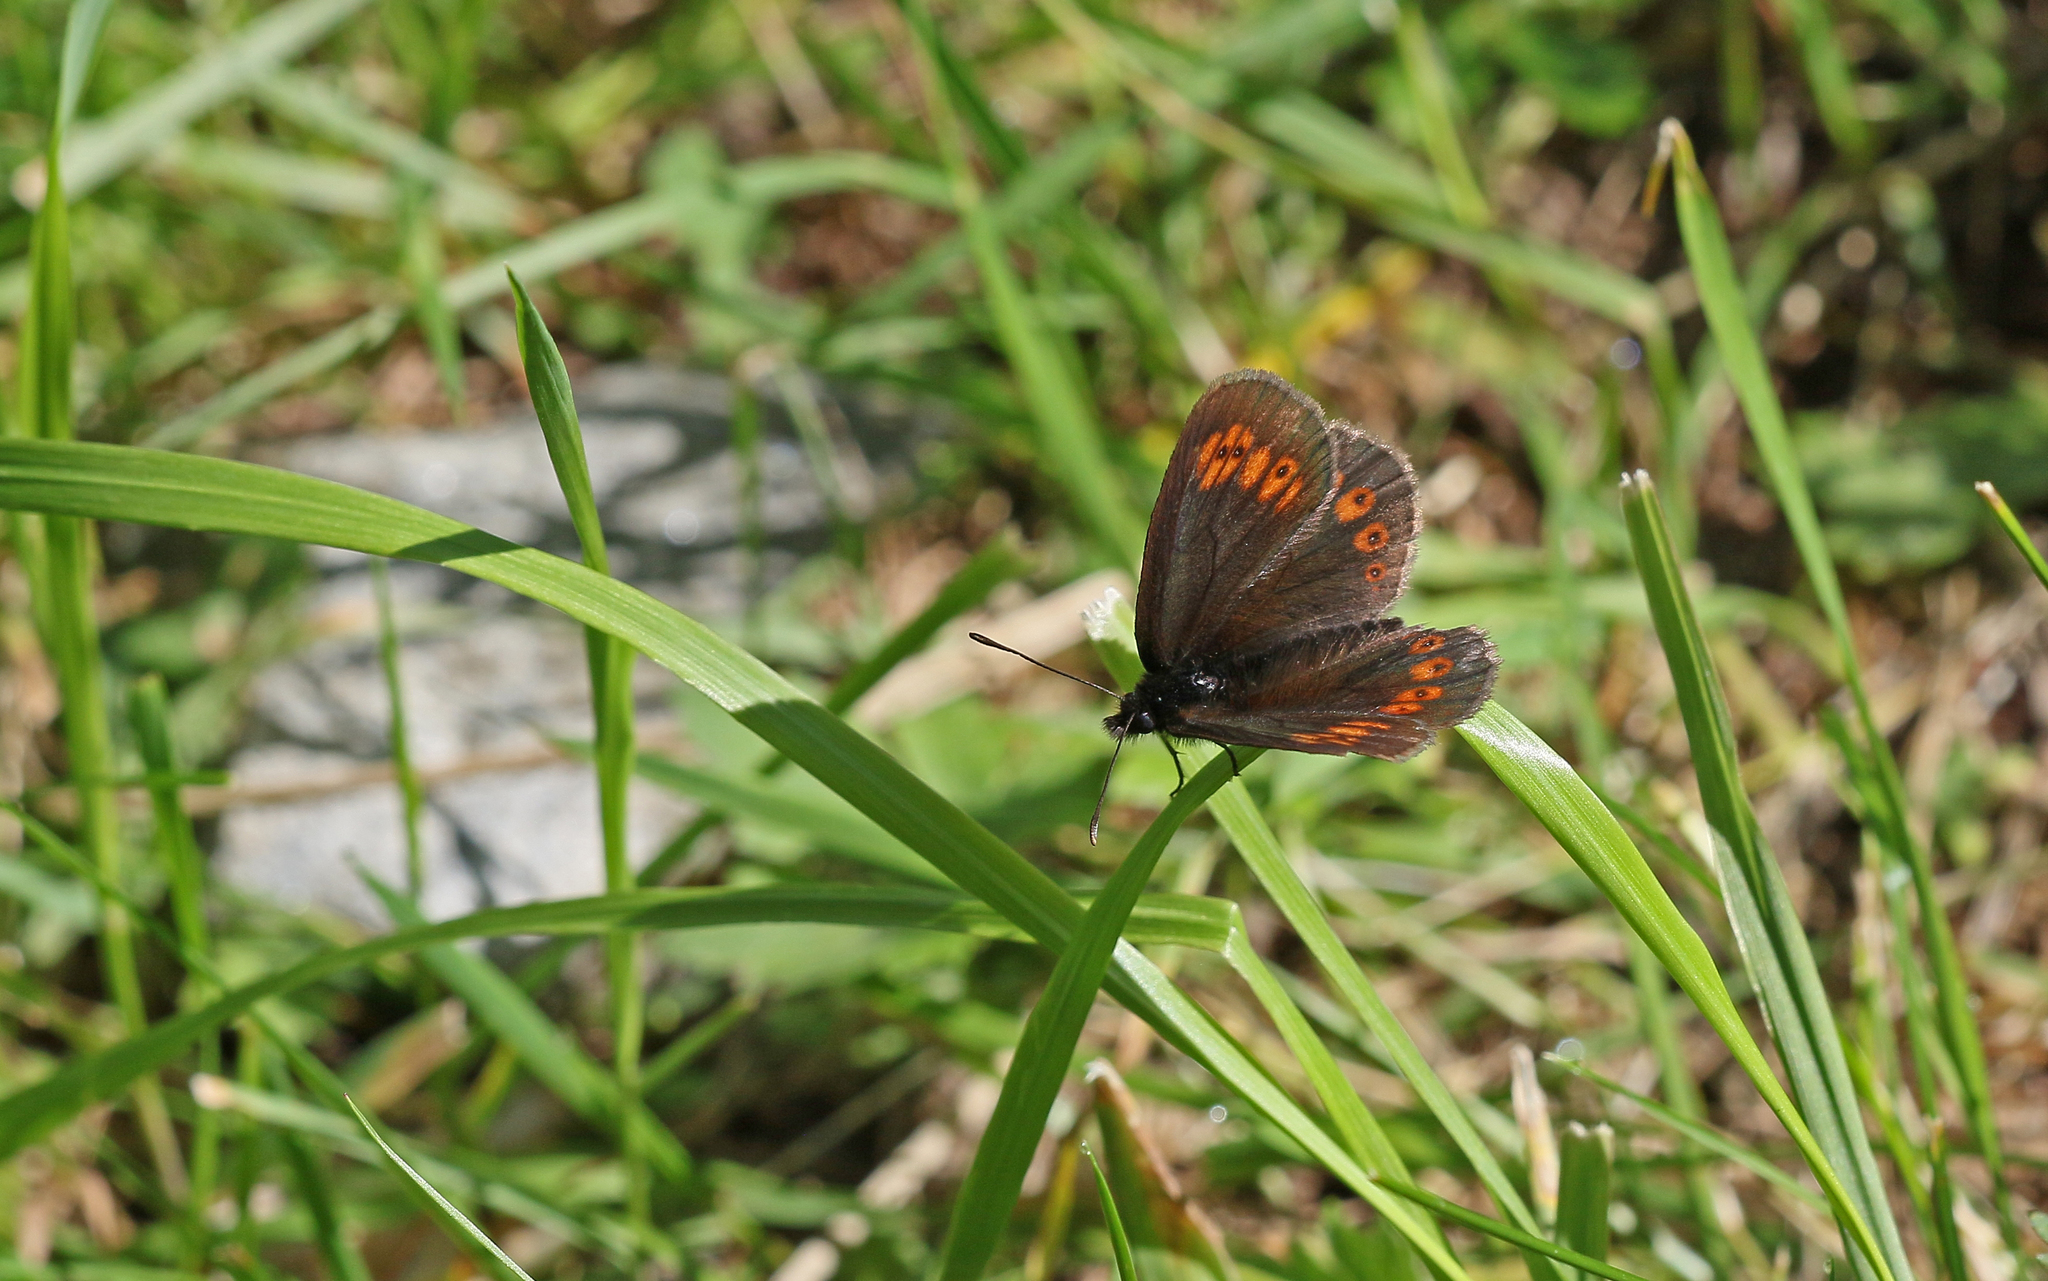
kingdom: Animalia
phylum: Arthropoda
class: Insecta
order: Lepidoptera
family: Nymphalidae
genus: Erebia
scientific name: Erebia alberganus
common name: Almond-eyed ringlet
